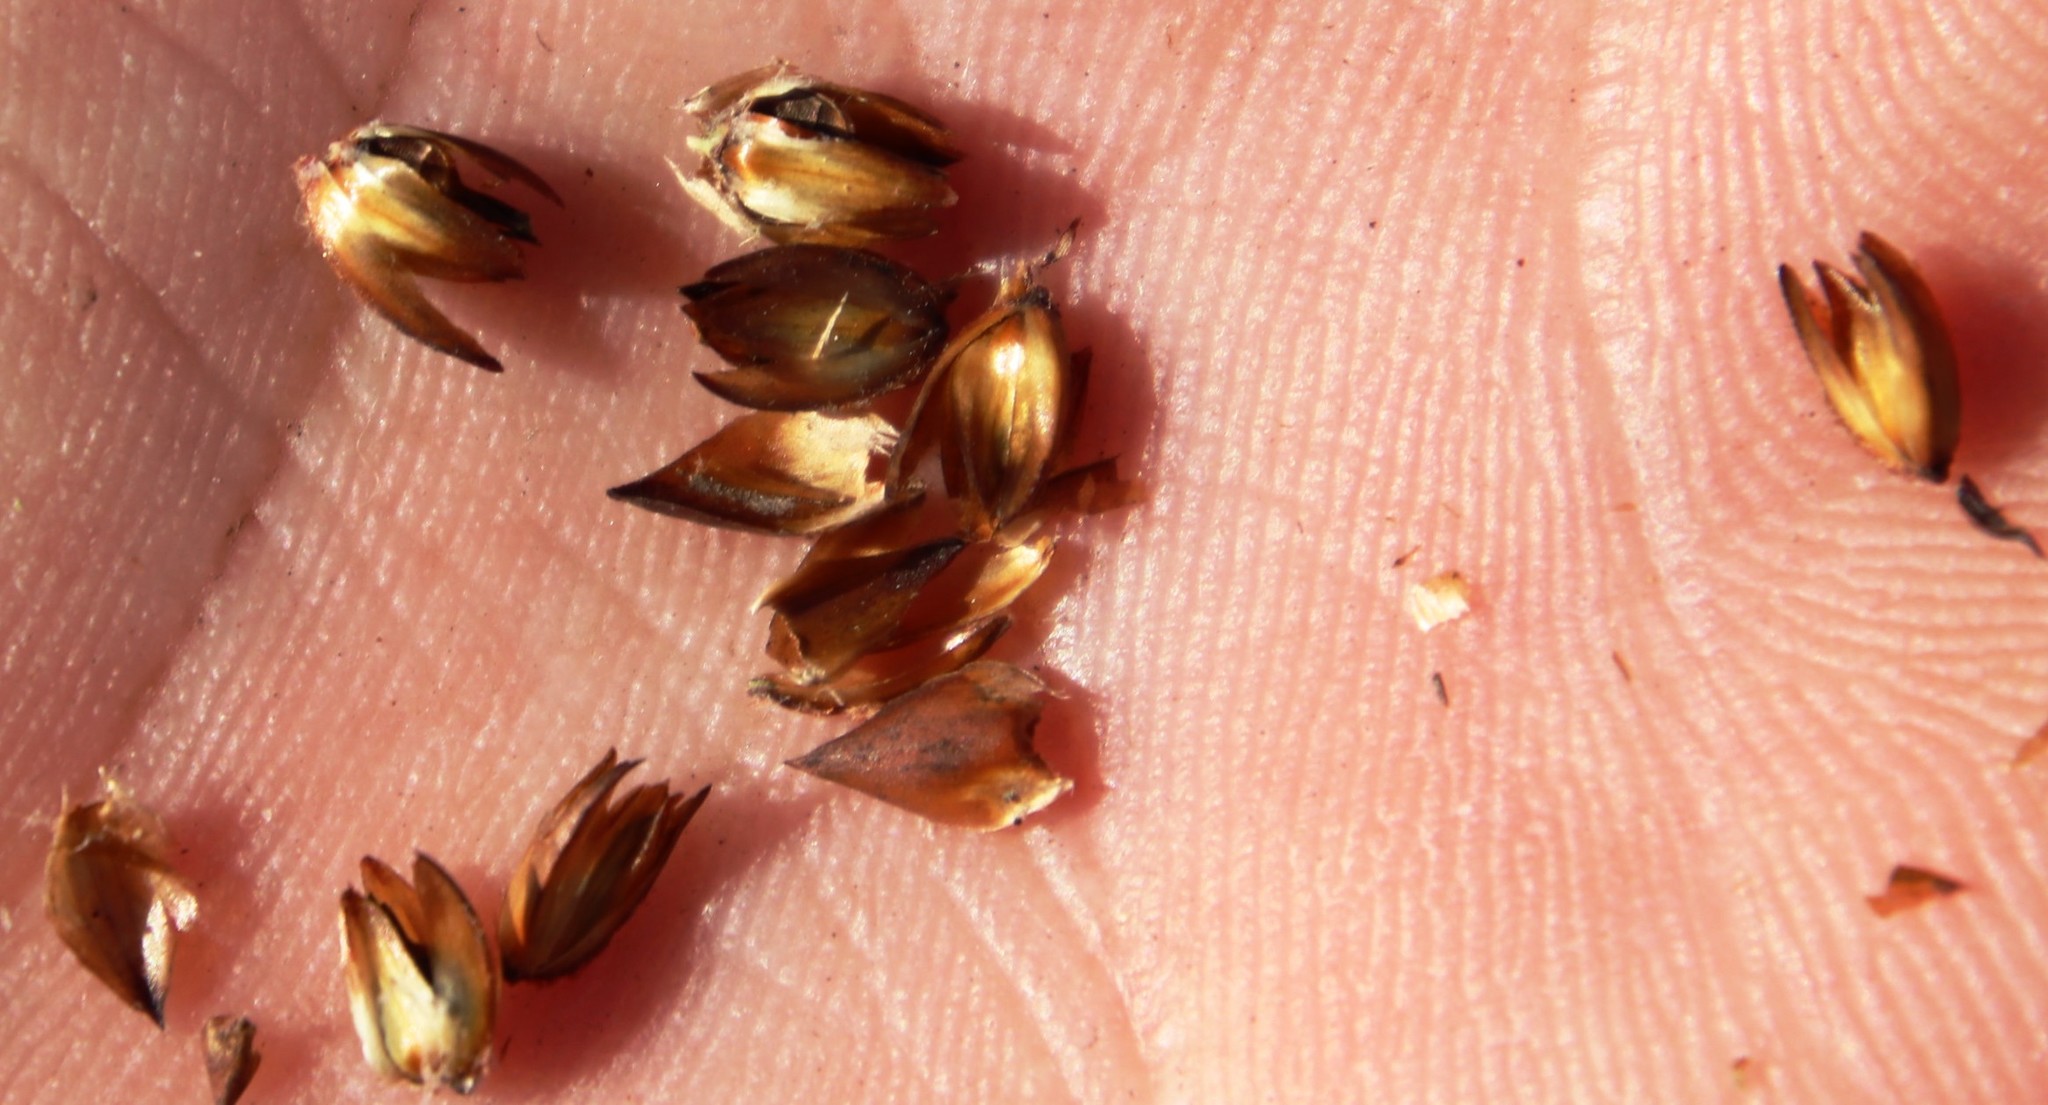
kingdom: Plantae
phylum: Tracheophyta
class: Liliopsida
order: Poales
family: Restionaceae
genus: Restio
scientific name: Restio capensis
